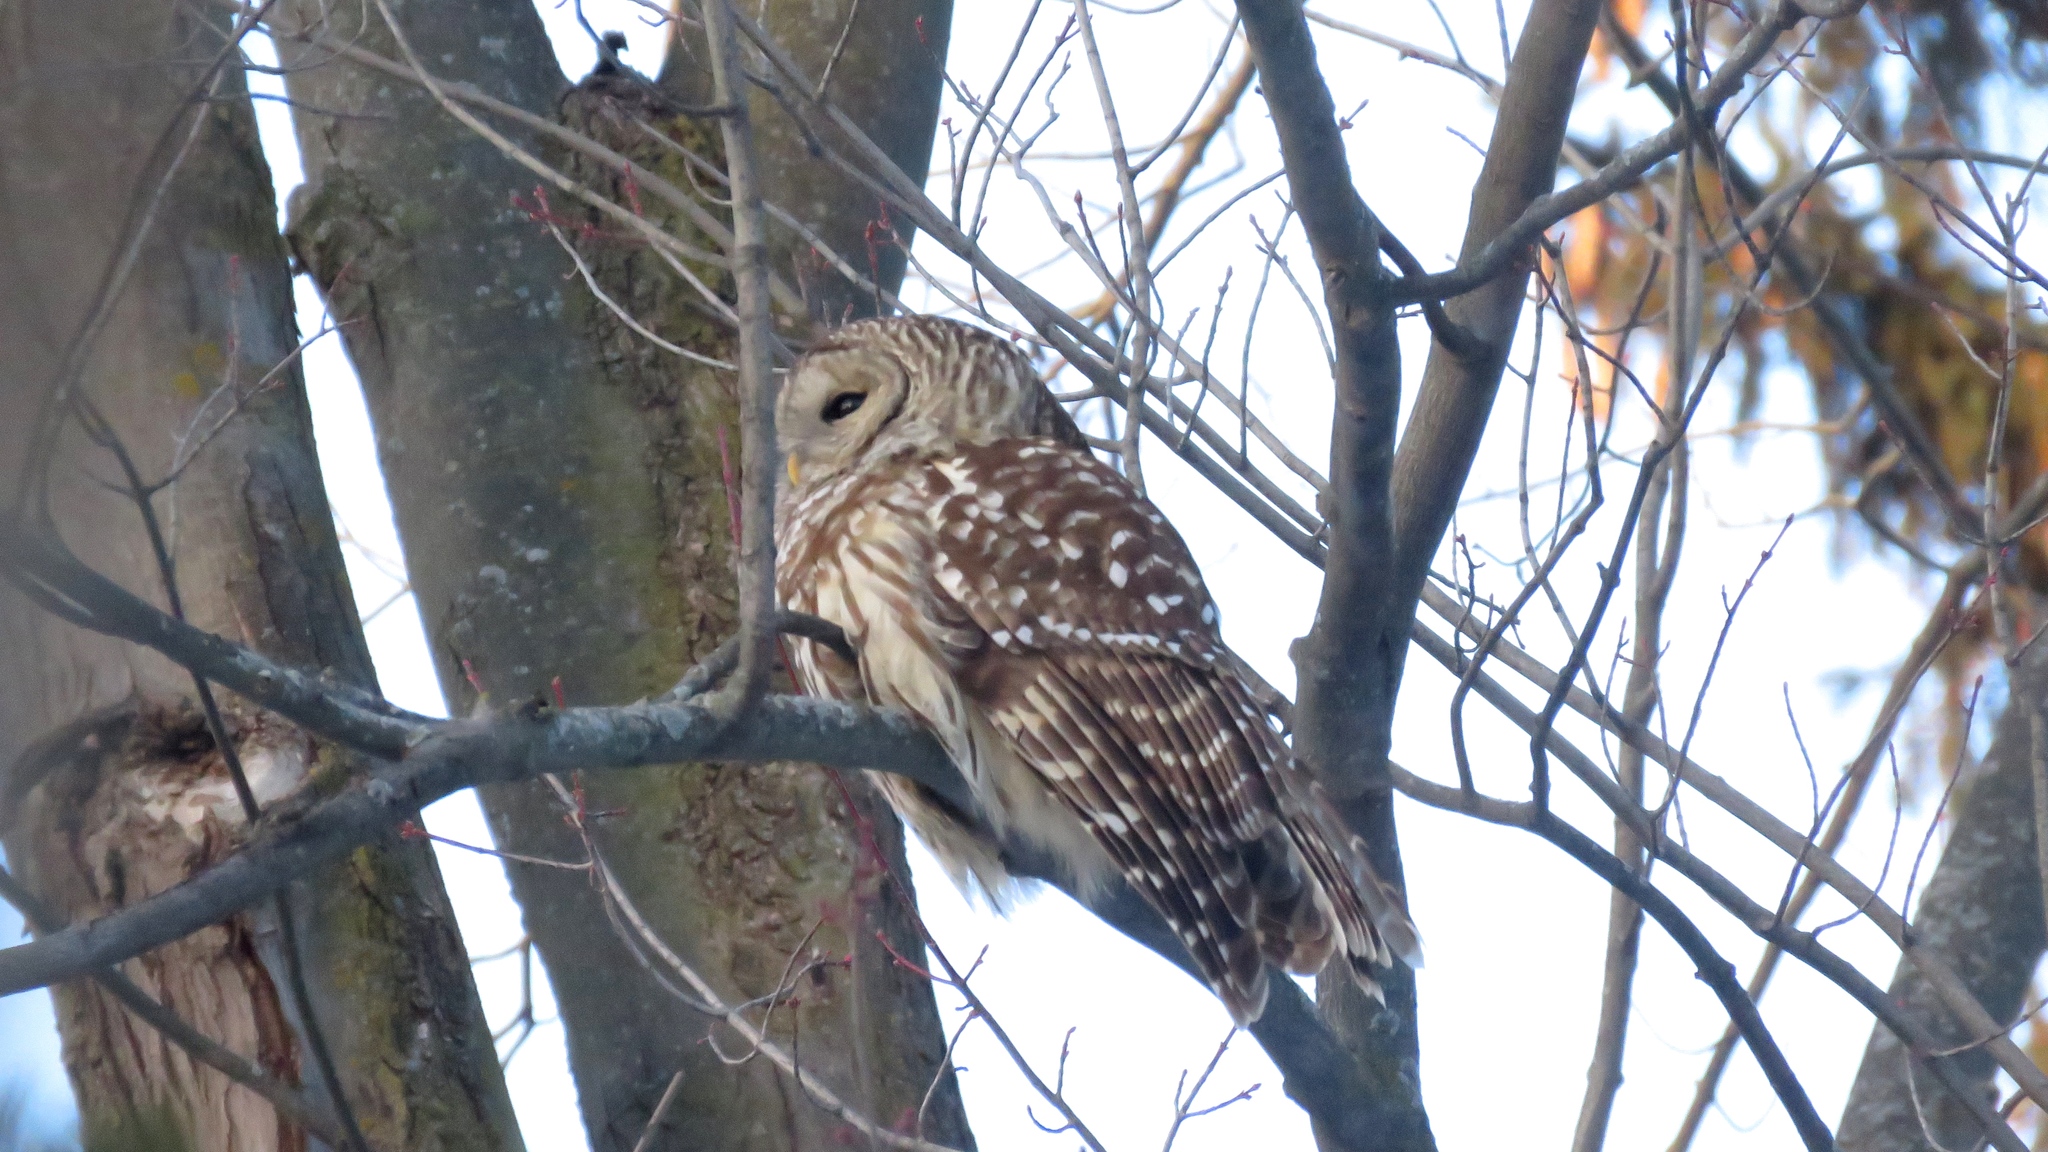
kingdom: Animalia
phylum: Chordata
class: Aves
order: Strigiformes
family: Strigidae
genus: Strix
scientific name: Strix varia
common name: Barred owl
